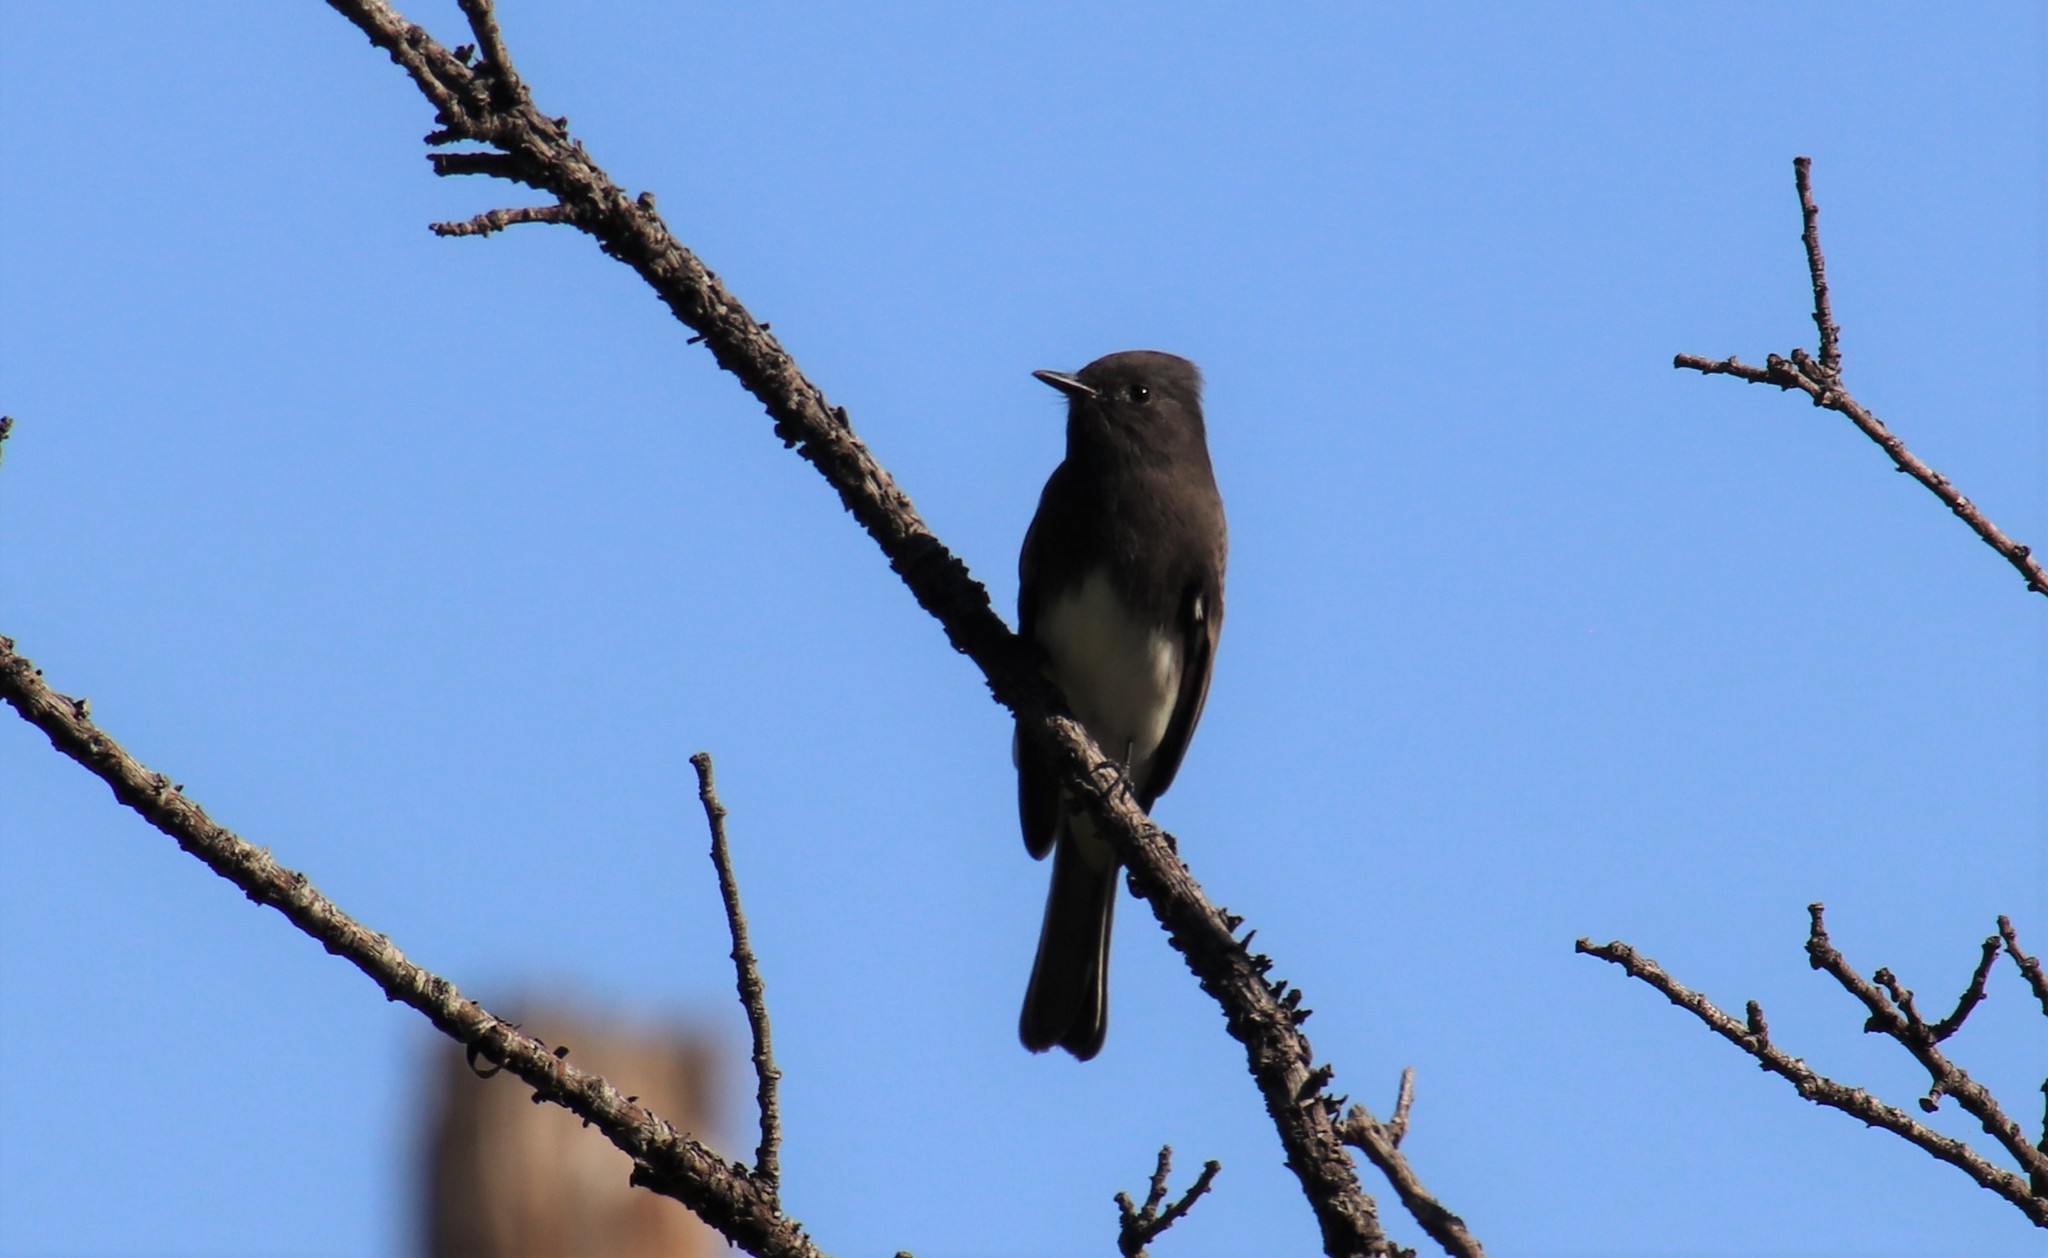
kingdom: Animalia
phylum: Chordata
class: Aves
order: Passeriformes
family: Tyrannidae
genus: Sayornis
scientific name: Sayornis nigricans
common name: Black phoebe
